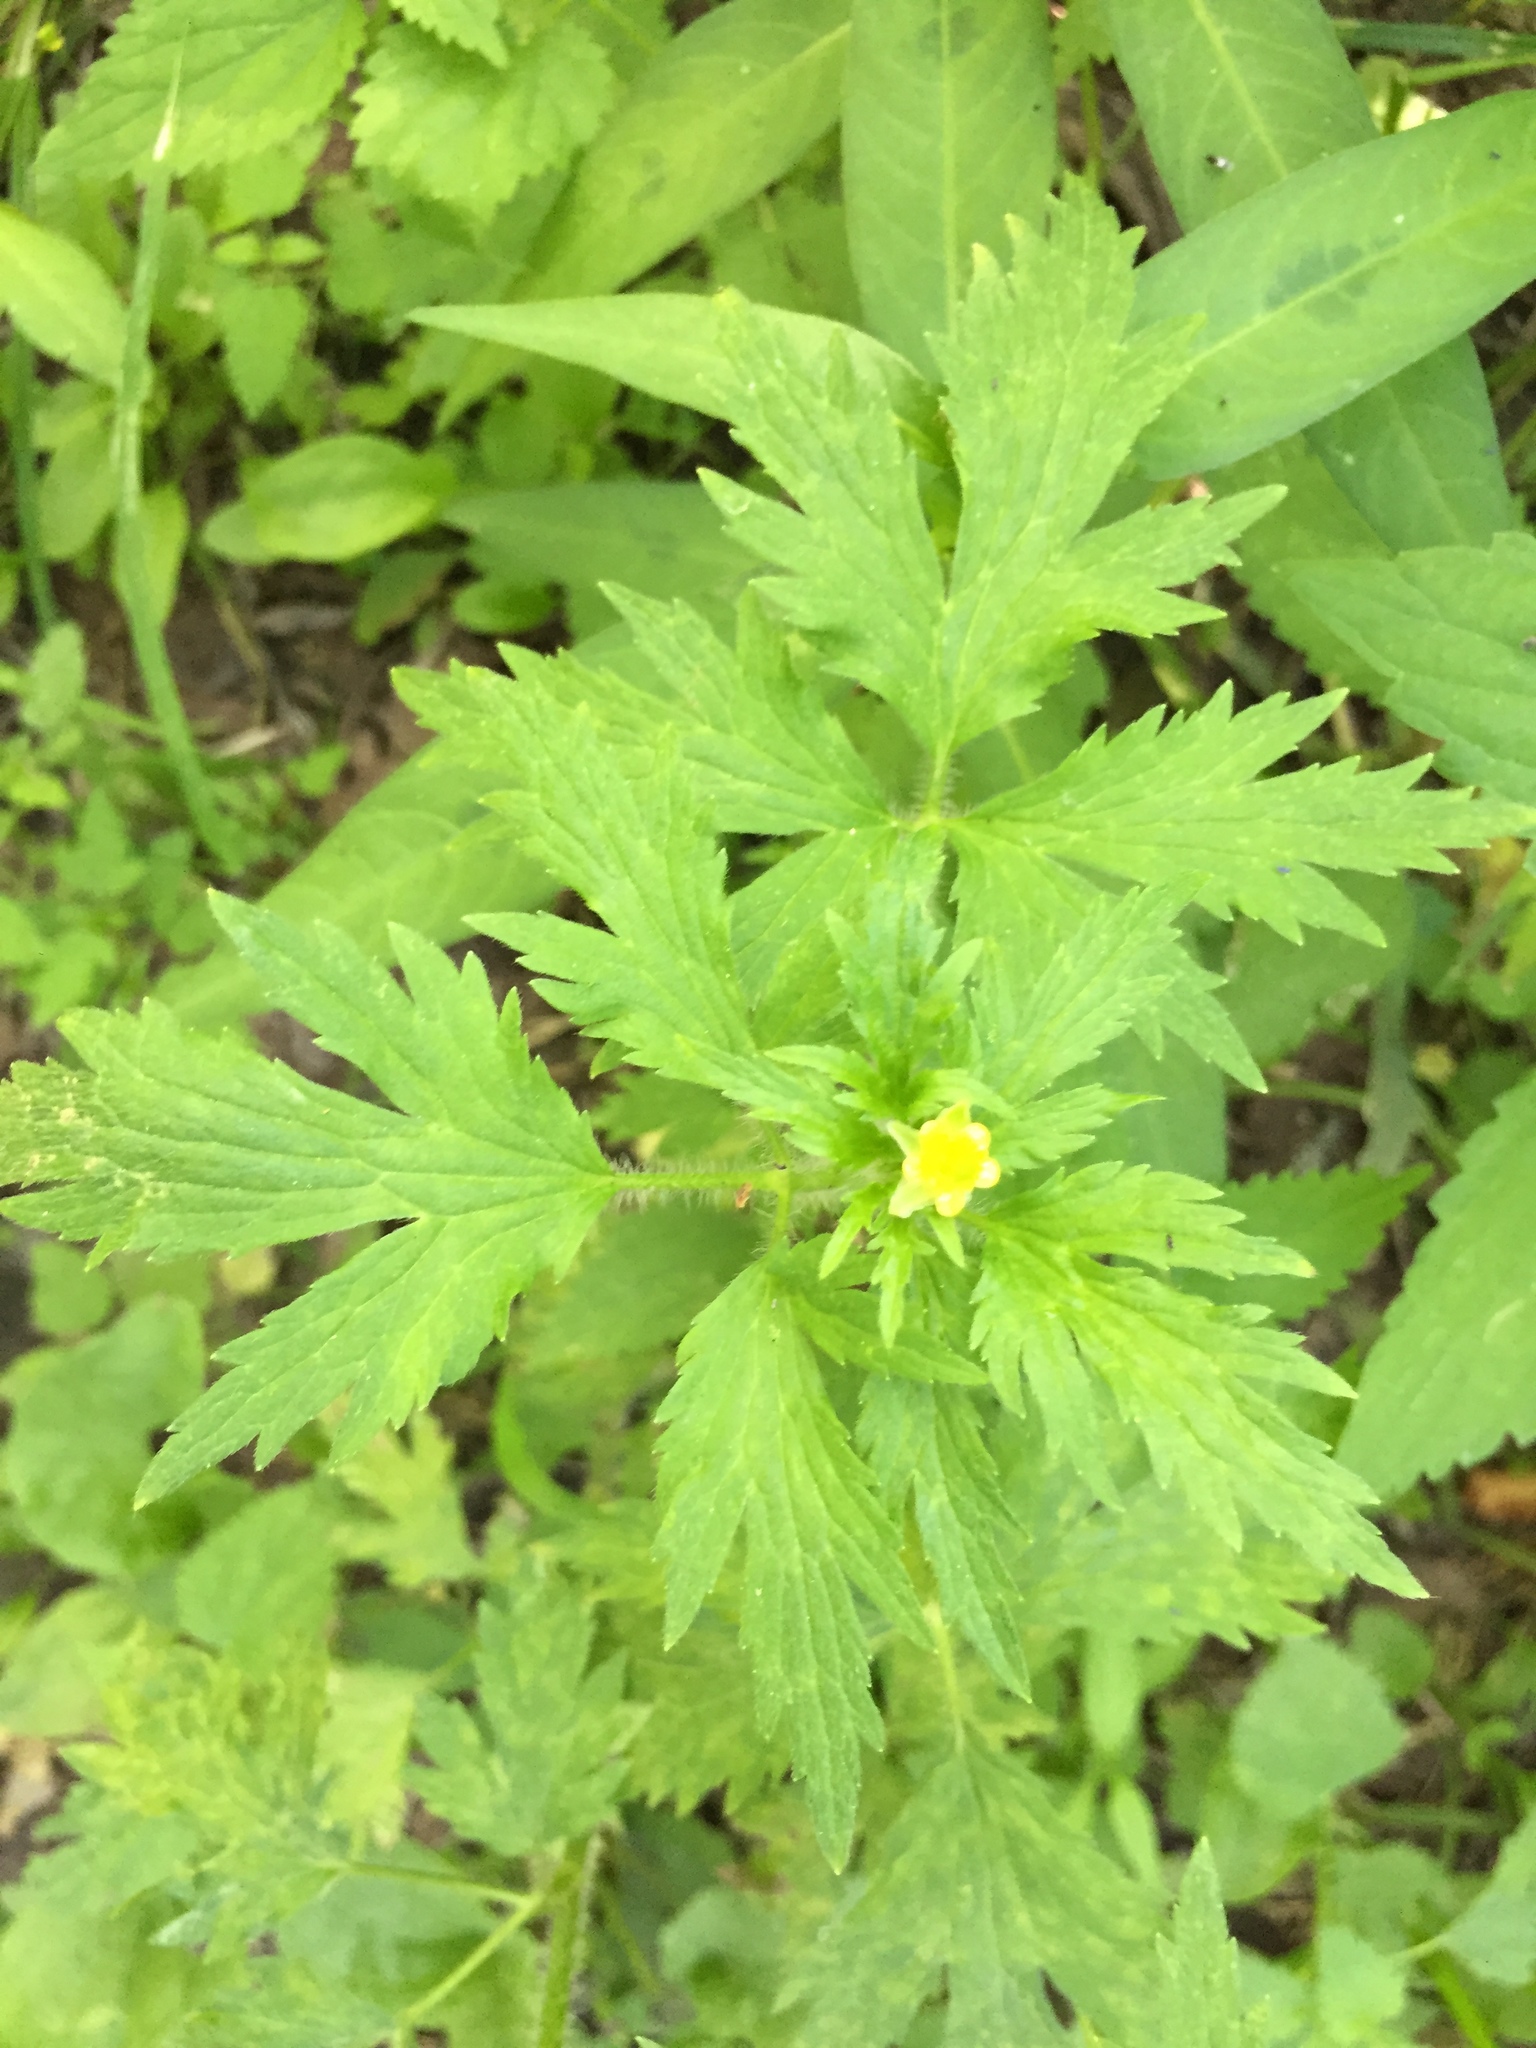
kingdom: Plantae
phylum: Tracheophyta
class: Magnoliopsida
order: Ranunculales
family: Ranunculaceae
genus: Ranunculus
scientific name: Ranunculus pensylvanicus
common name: Bristly buttercup
